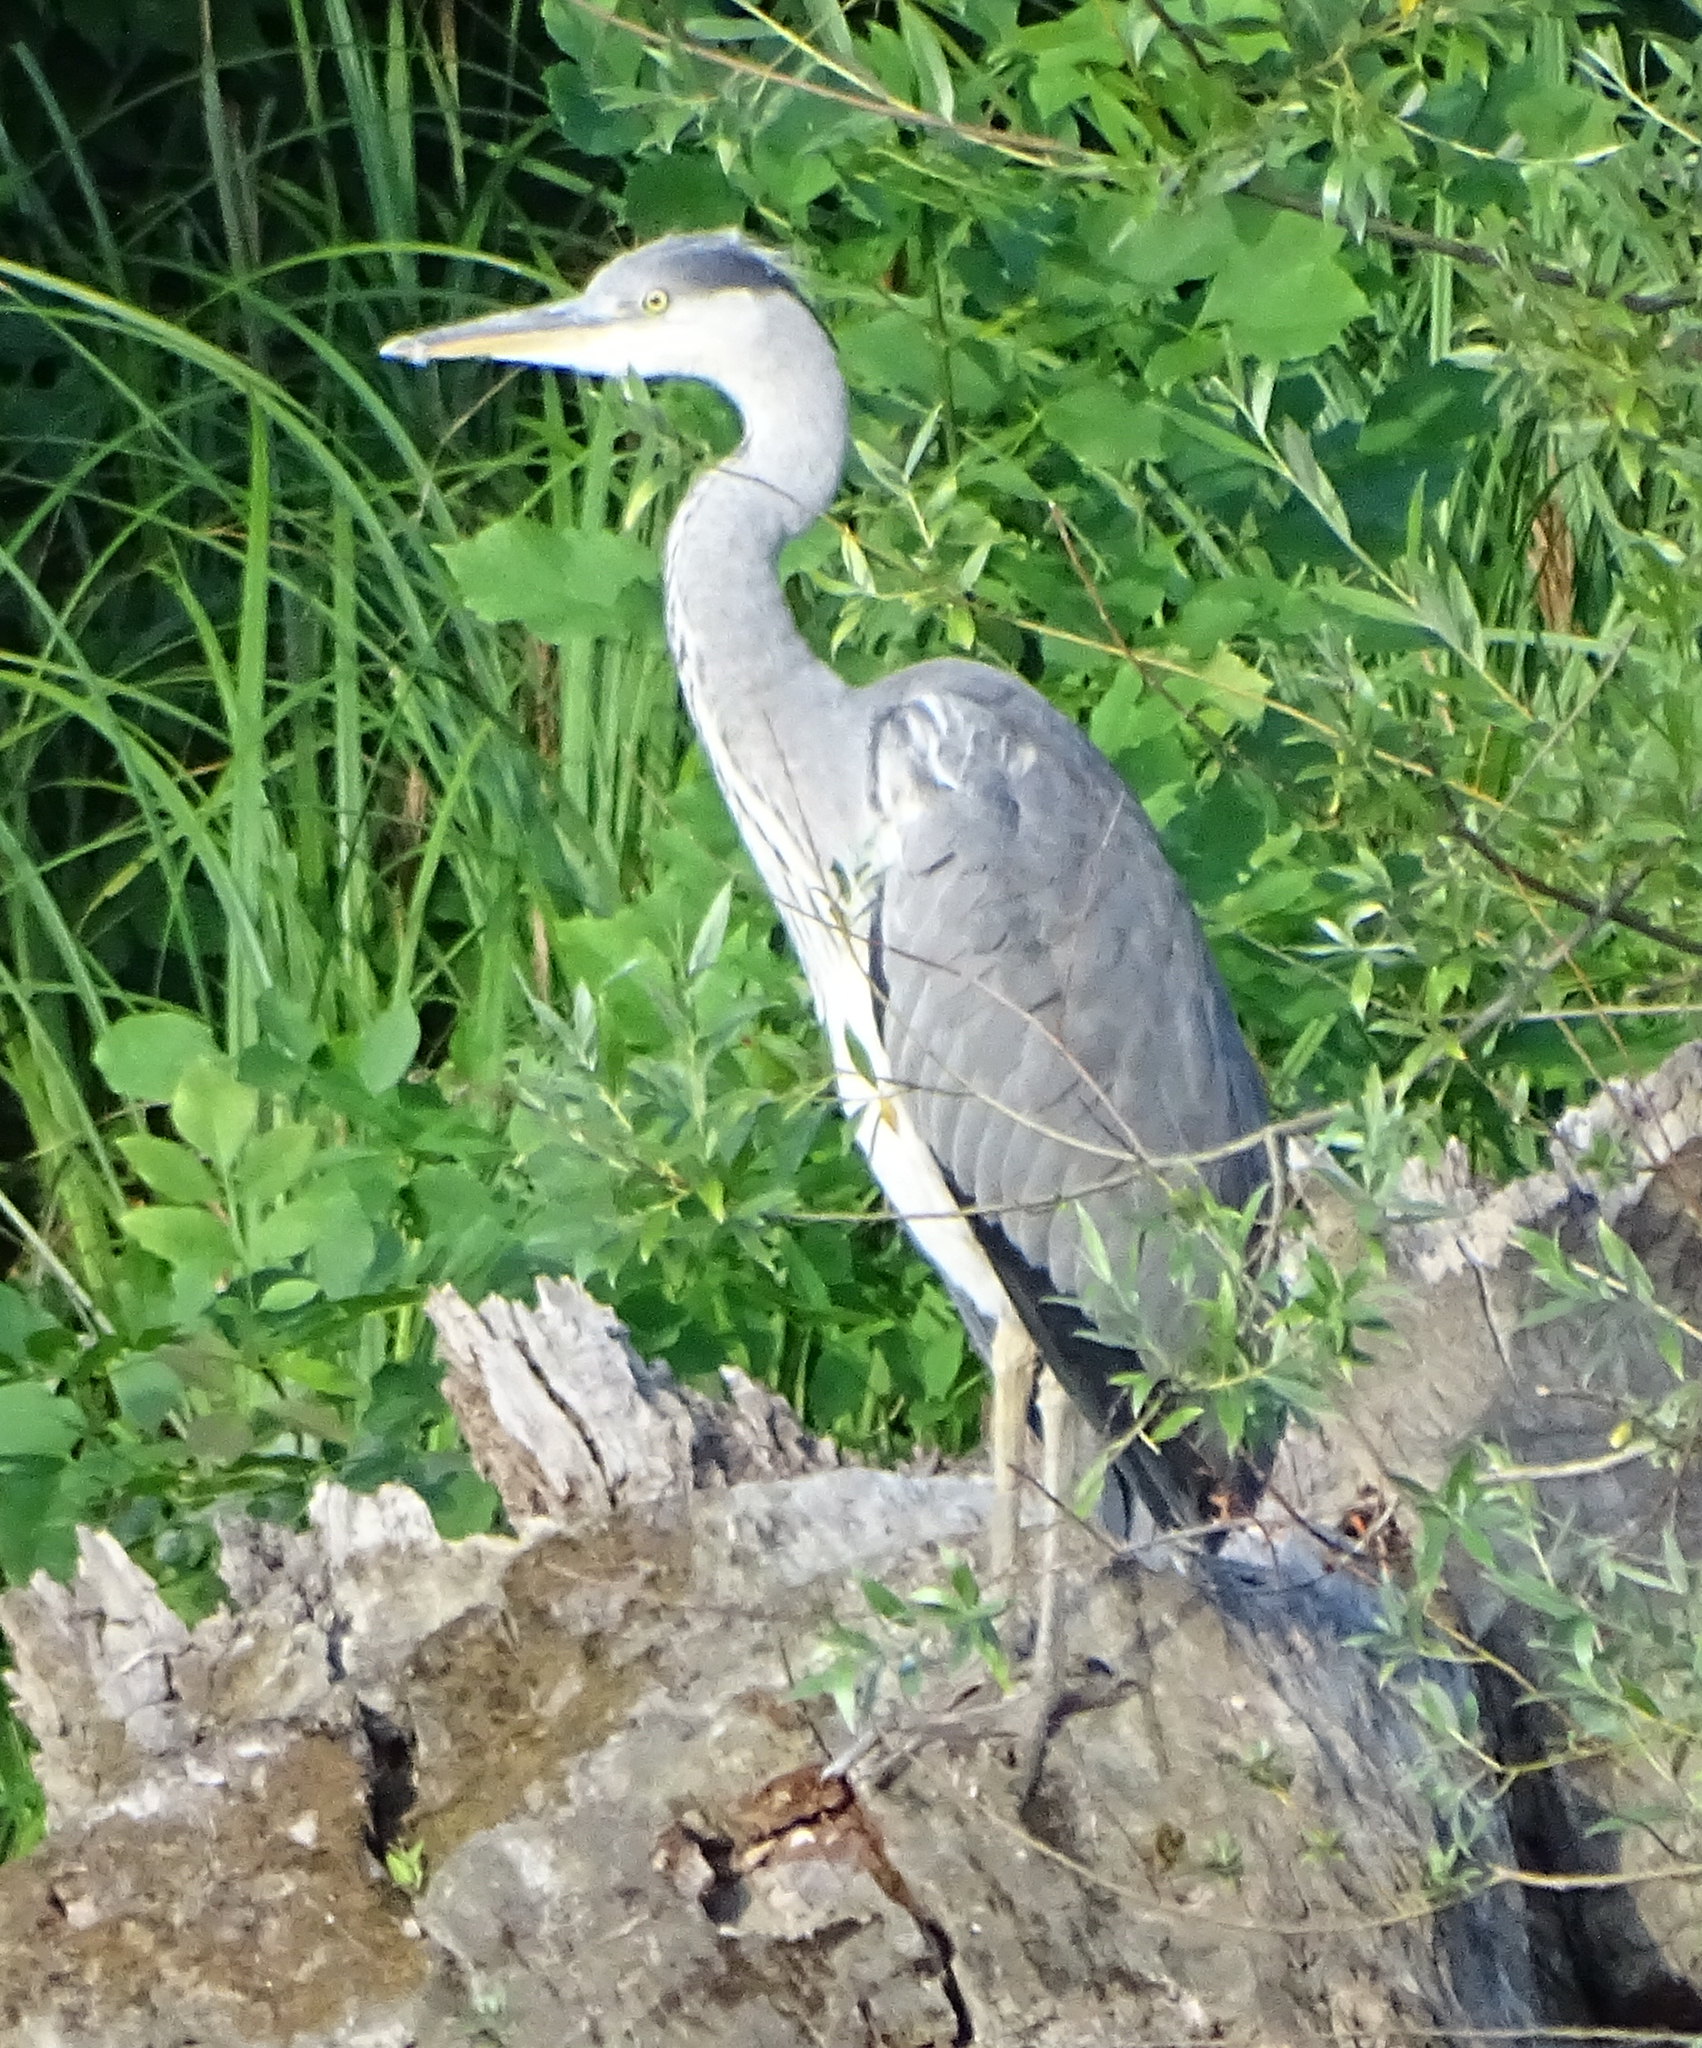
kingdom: Animalia
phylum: Chordata
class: Aves
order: Pelecaniformes
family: Ardeidae
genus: Ardea
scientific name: Ardea cinerea
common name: Grey heron
